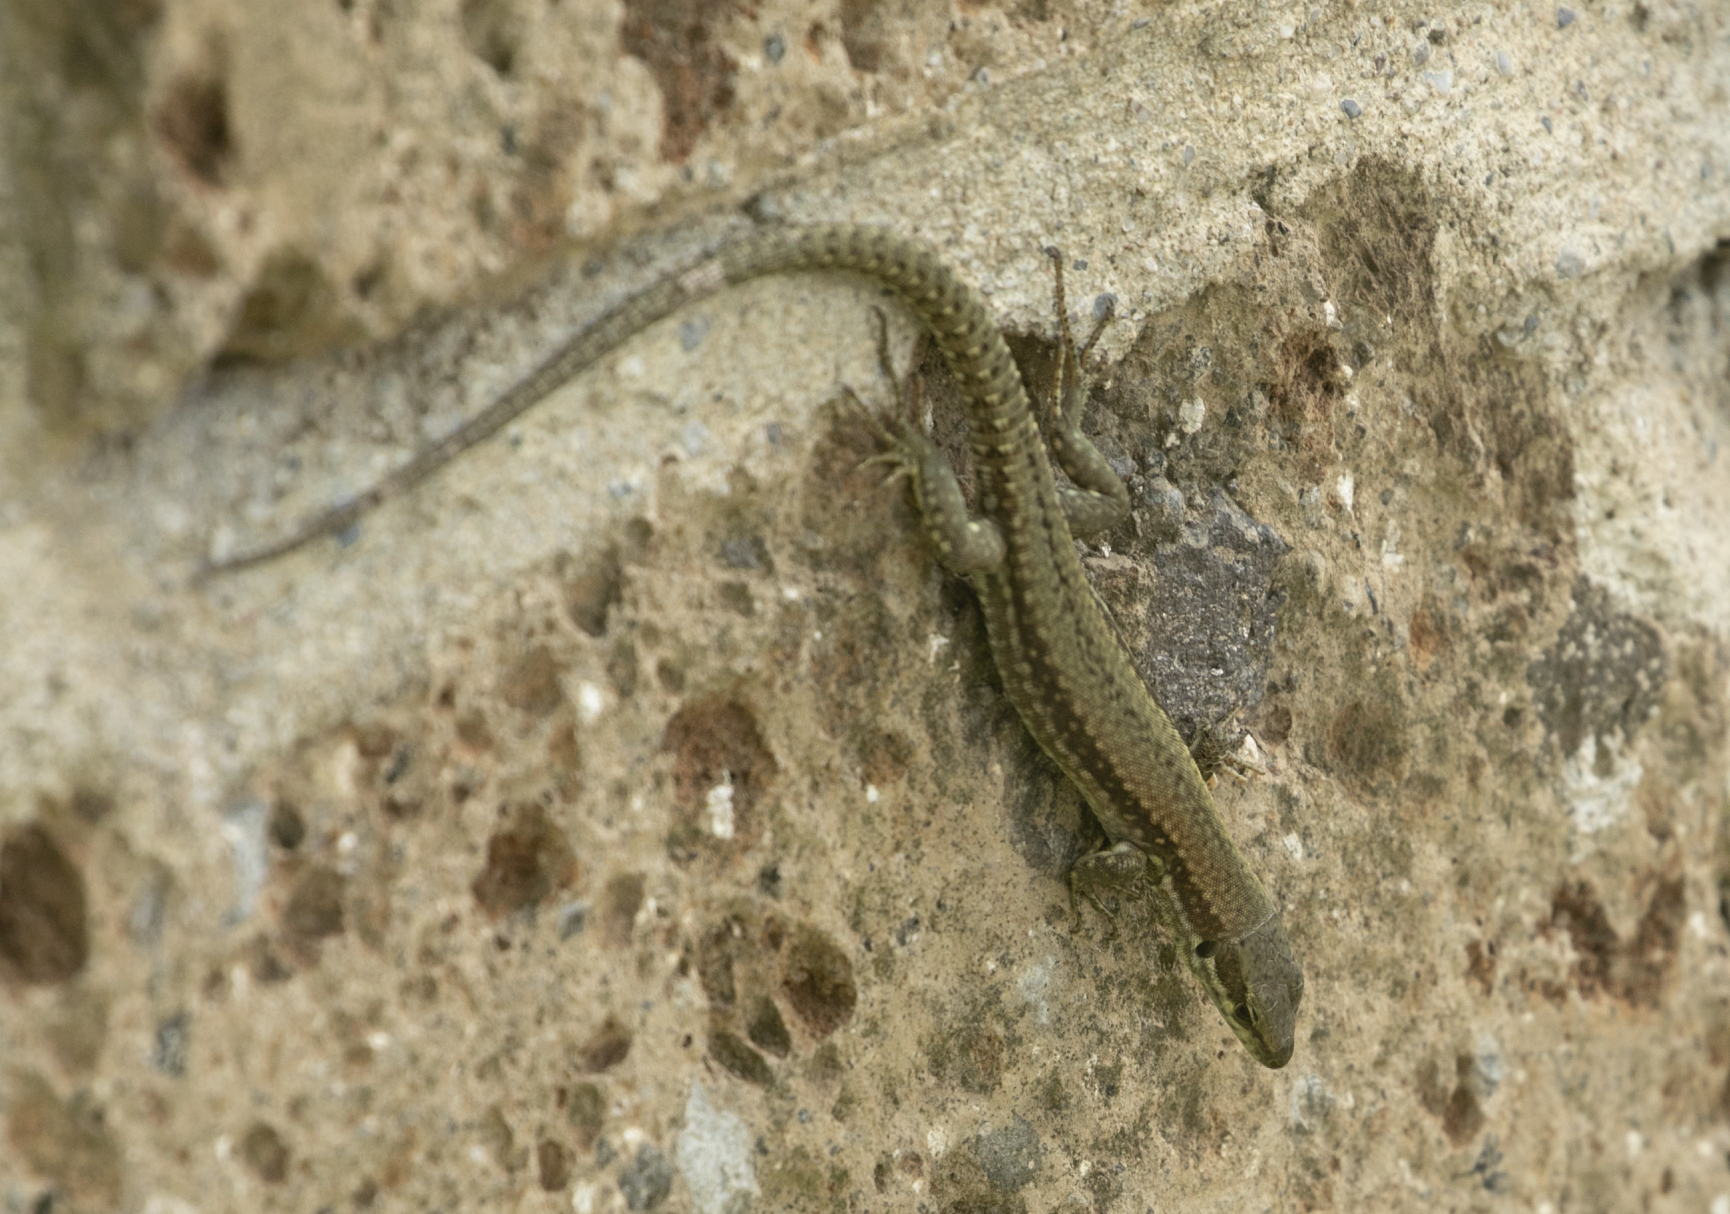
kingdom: Animalia
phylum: Chordata
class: Squamata
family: Lacertidae
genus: Podarcis
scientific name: Podarcis muralis
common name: Common wall lizard
